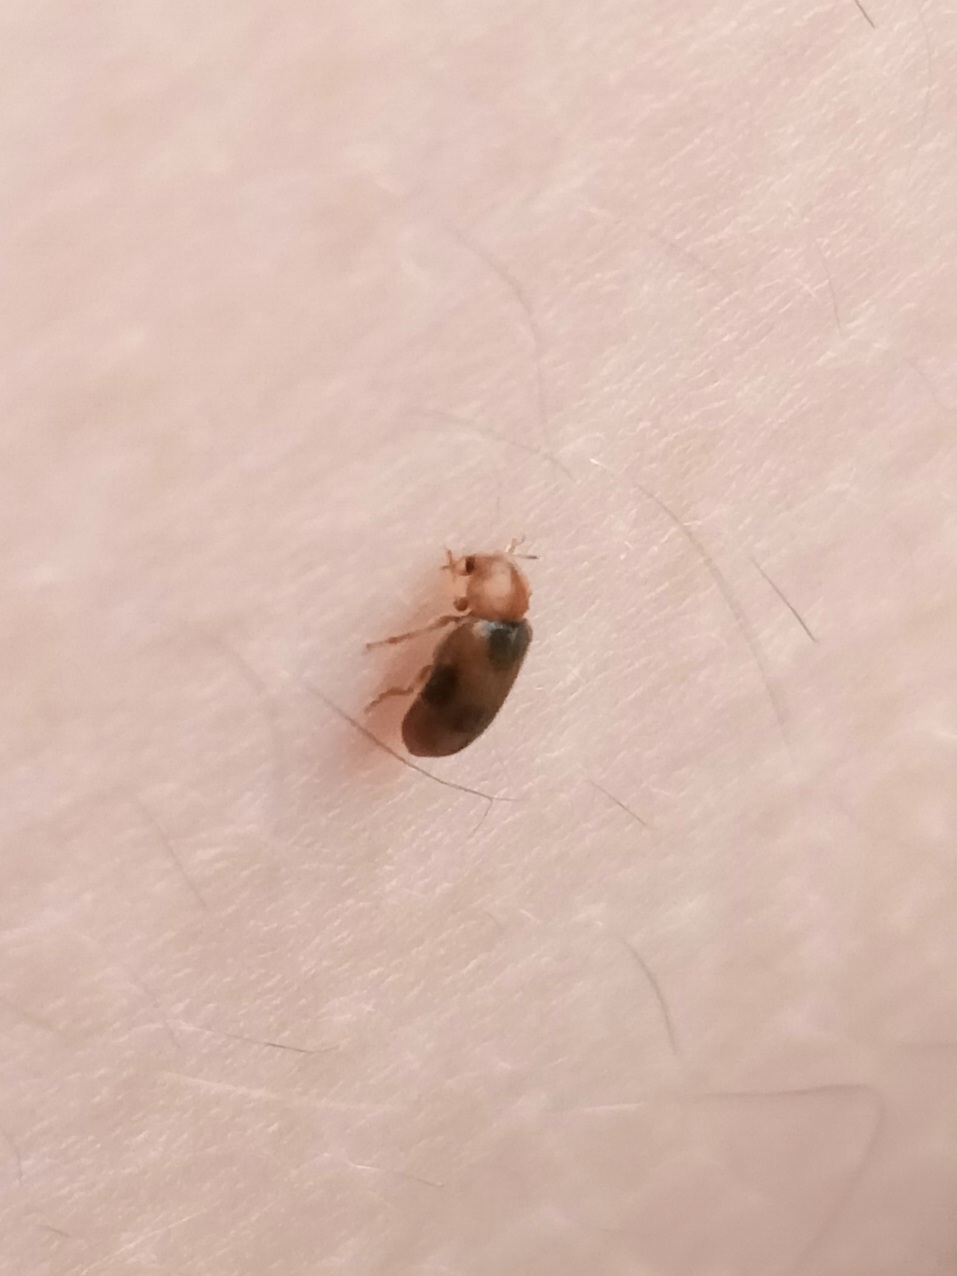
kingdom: Animalia
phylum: Arthropoda
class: Insecta
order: Coleoptera
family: Coccinellidae
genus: Coccidula
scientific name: Coccidula scutellata
